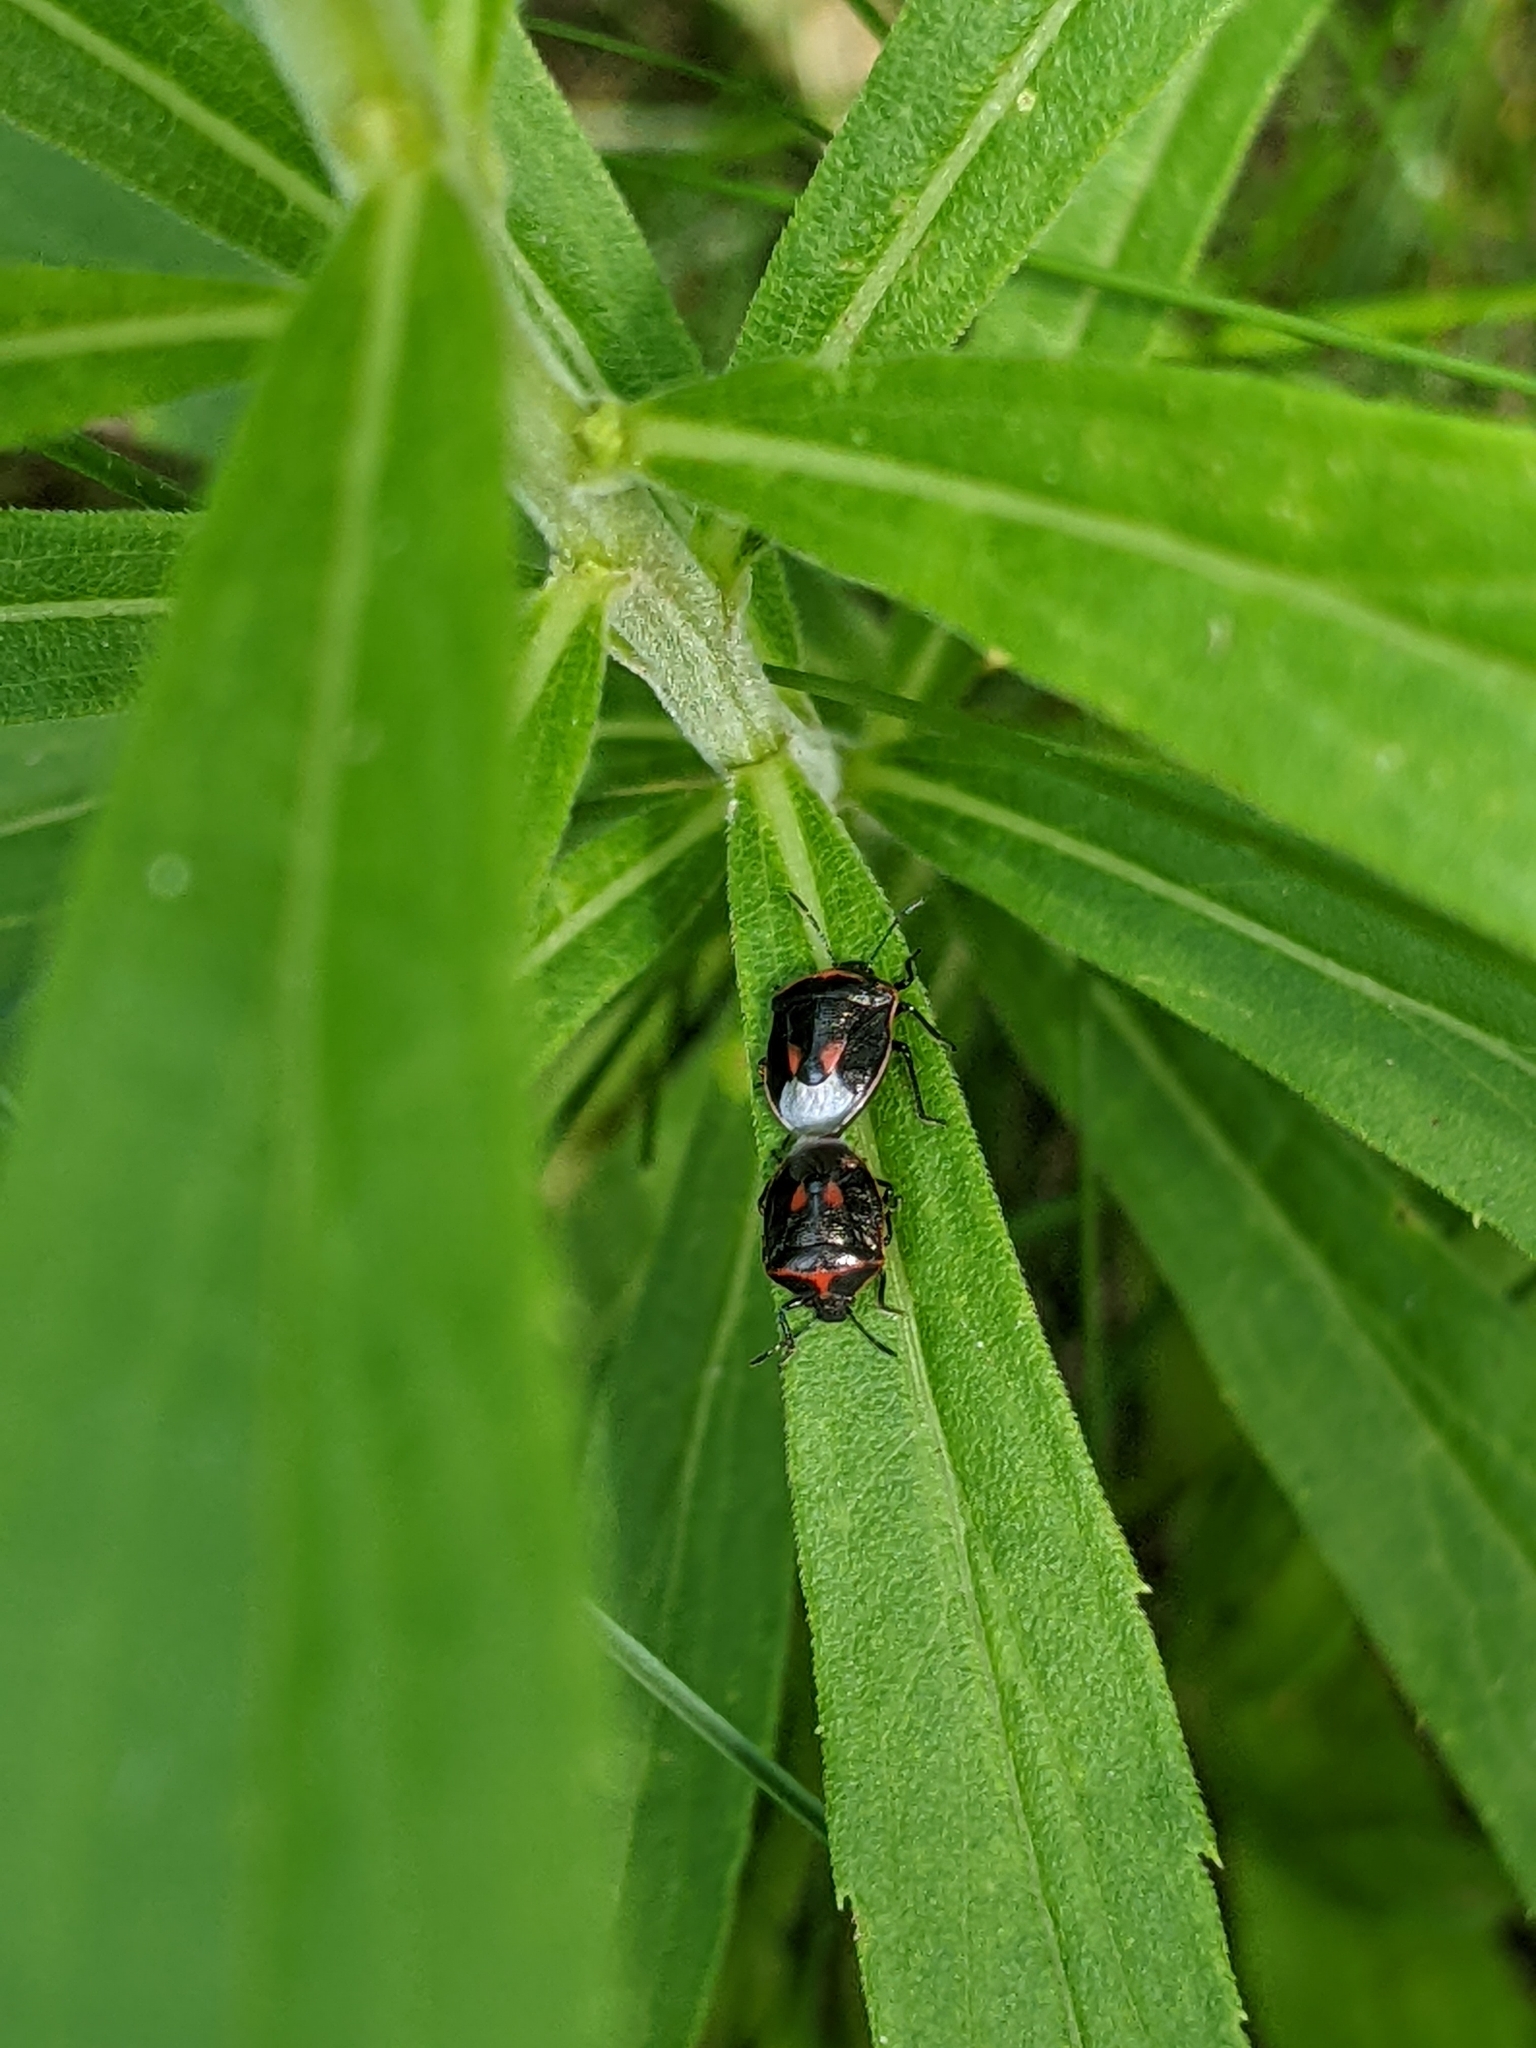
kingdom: Animalia
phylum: Arthropoda
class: Insecta
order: Hemiptera
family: Pentatomidae
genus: Cosmopepla
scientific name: Cosmopepla lintneriana
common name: Twice-stabbed stink bug
